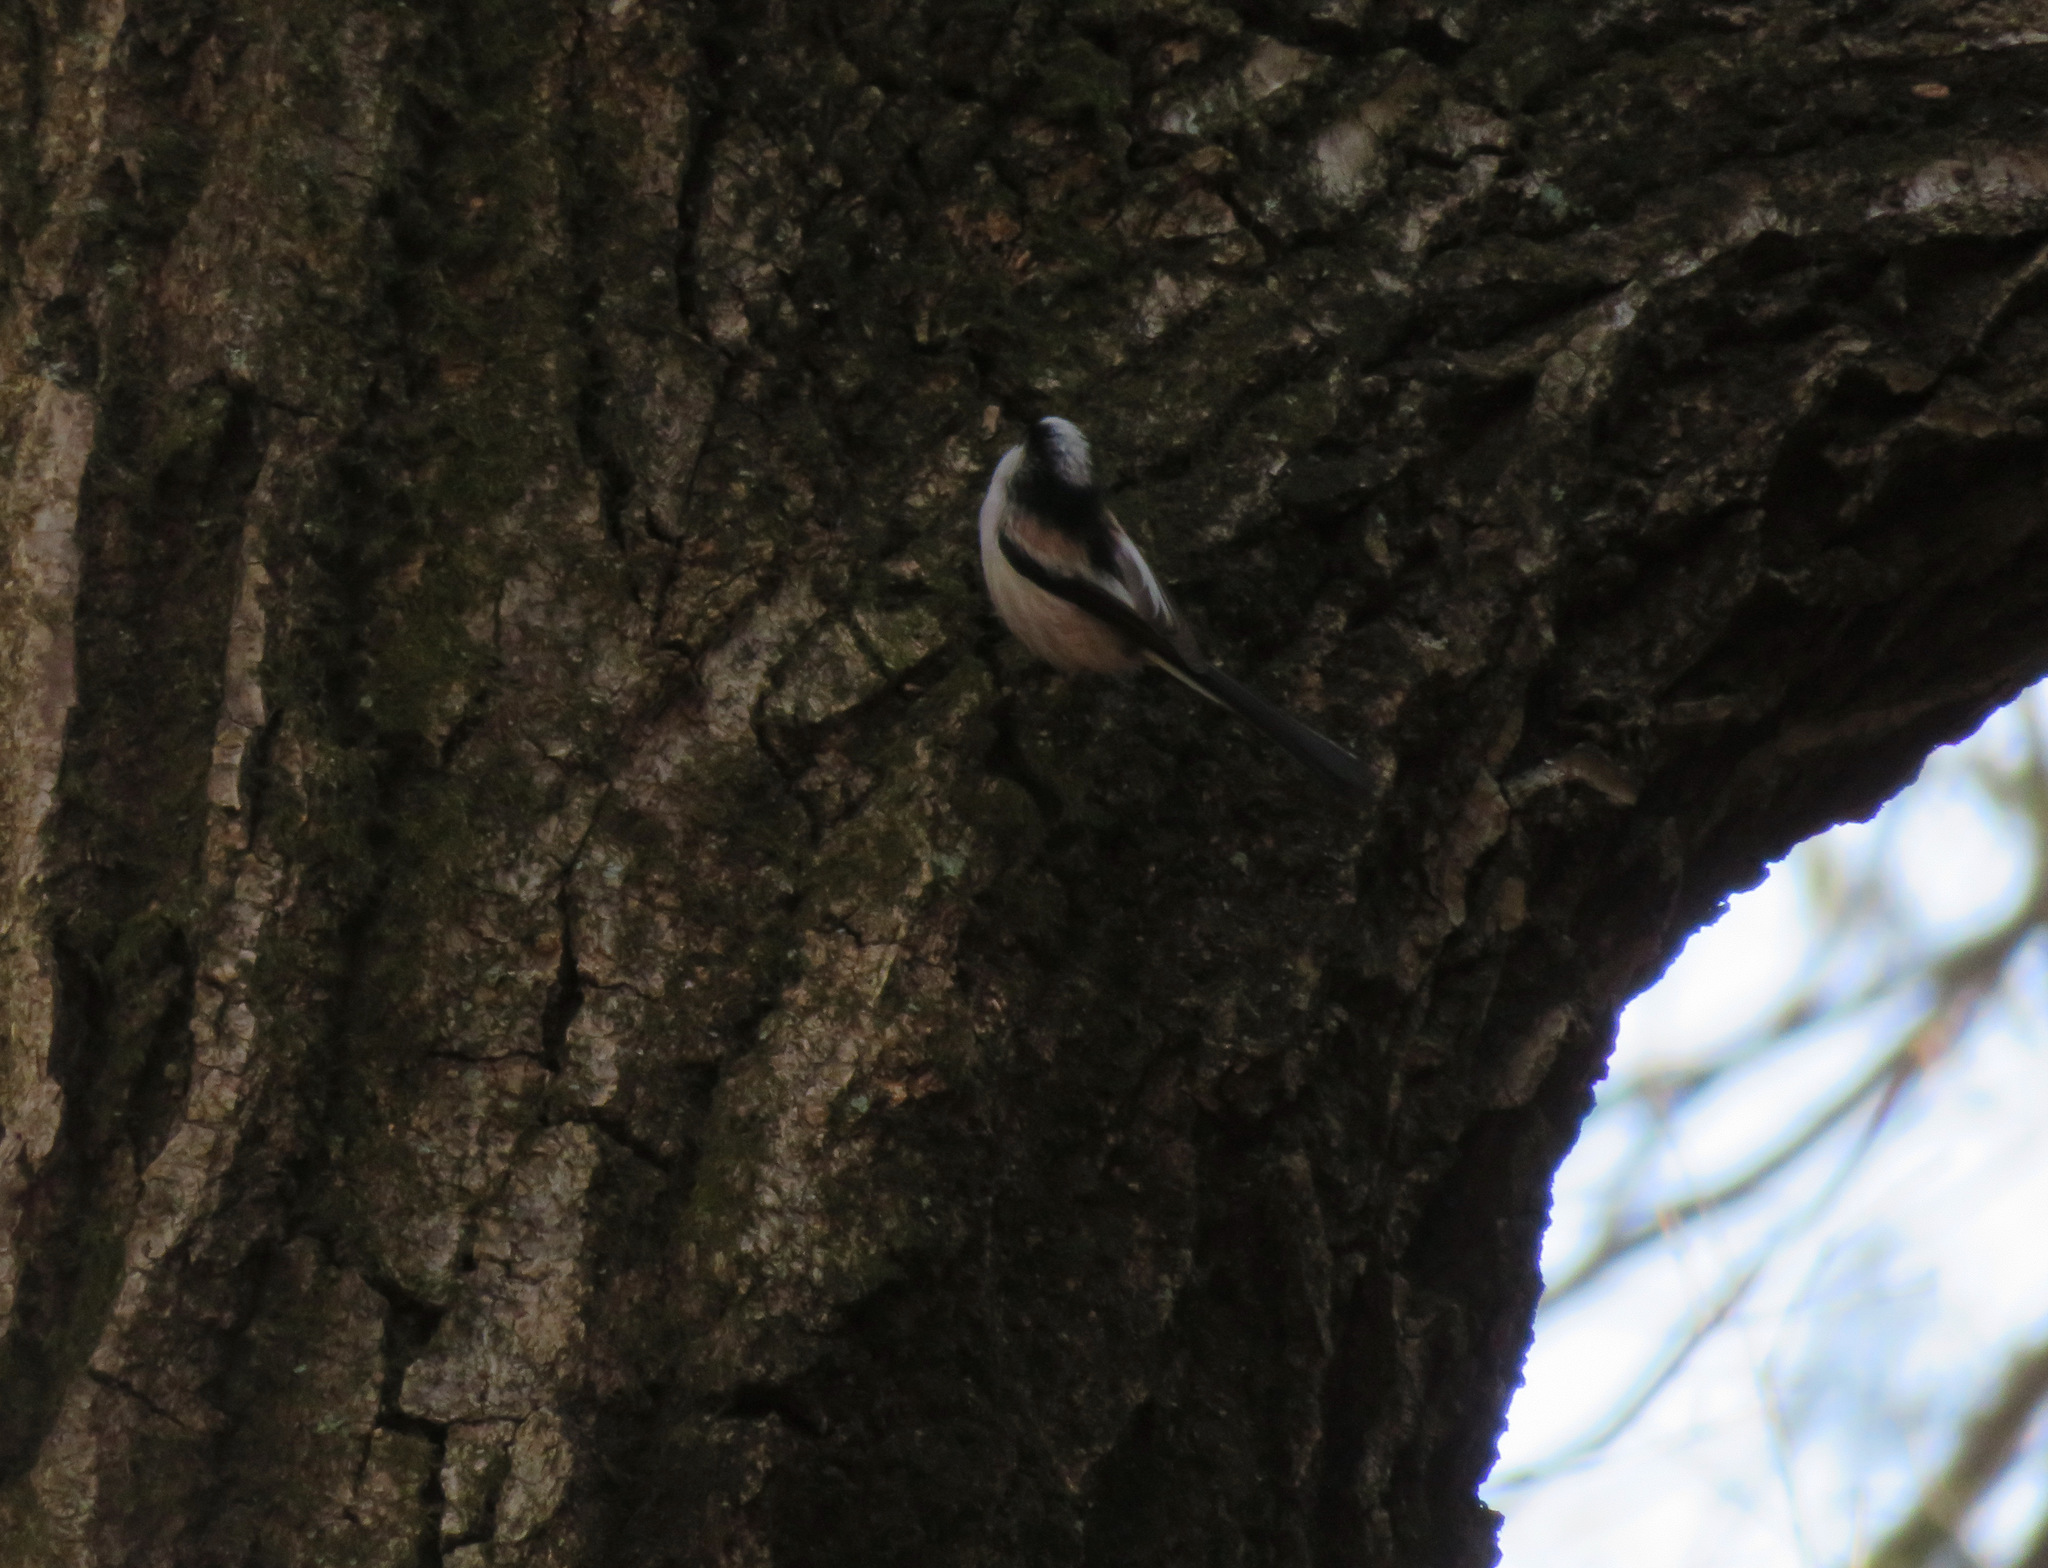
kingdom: Animalia
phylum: Chordata
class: Aves
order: Passeriformes
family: Aegithalidae
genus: Aegithalos
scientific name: Aegithalos caudatus
